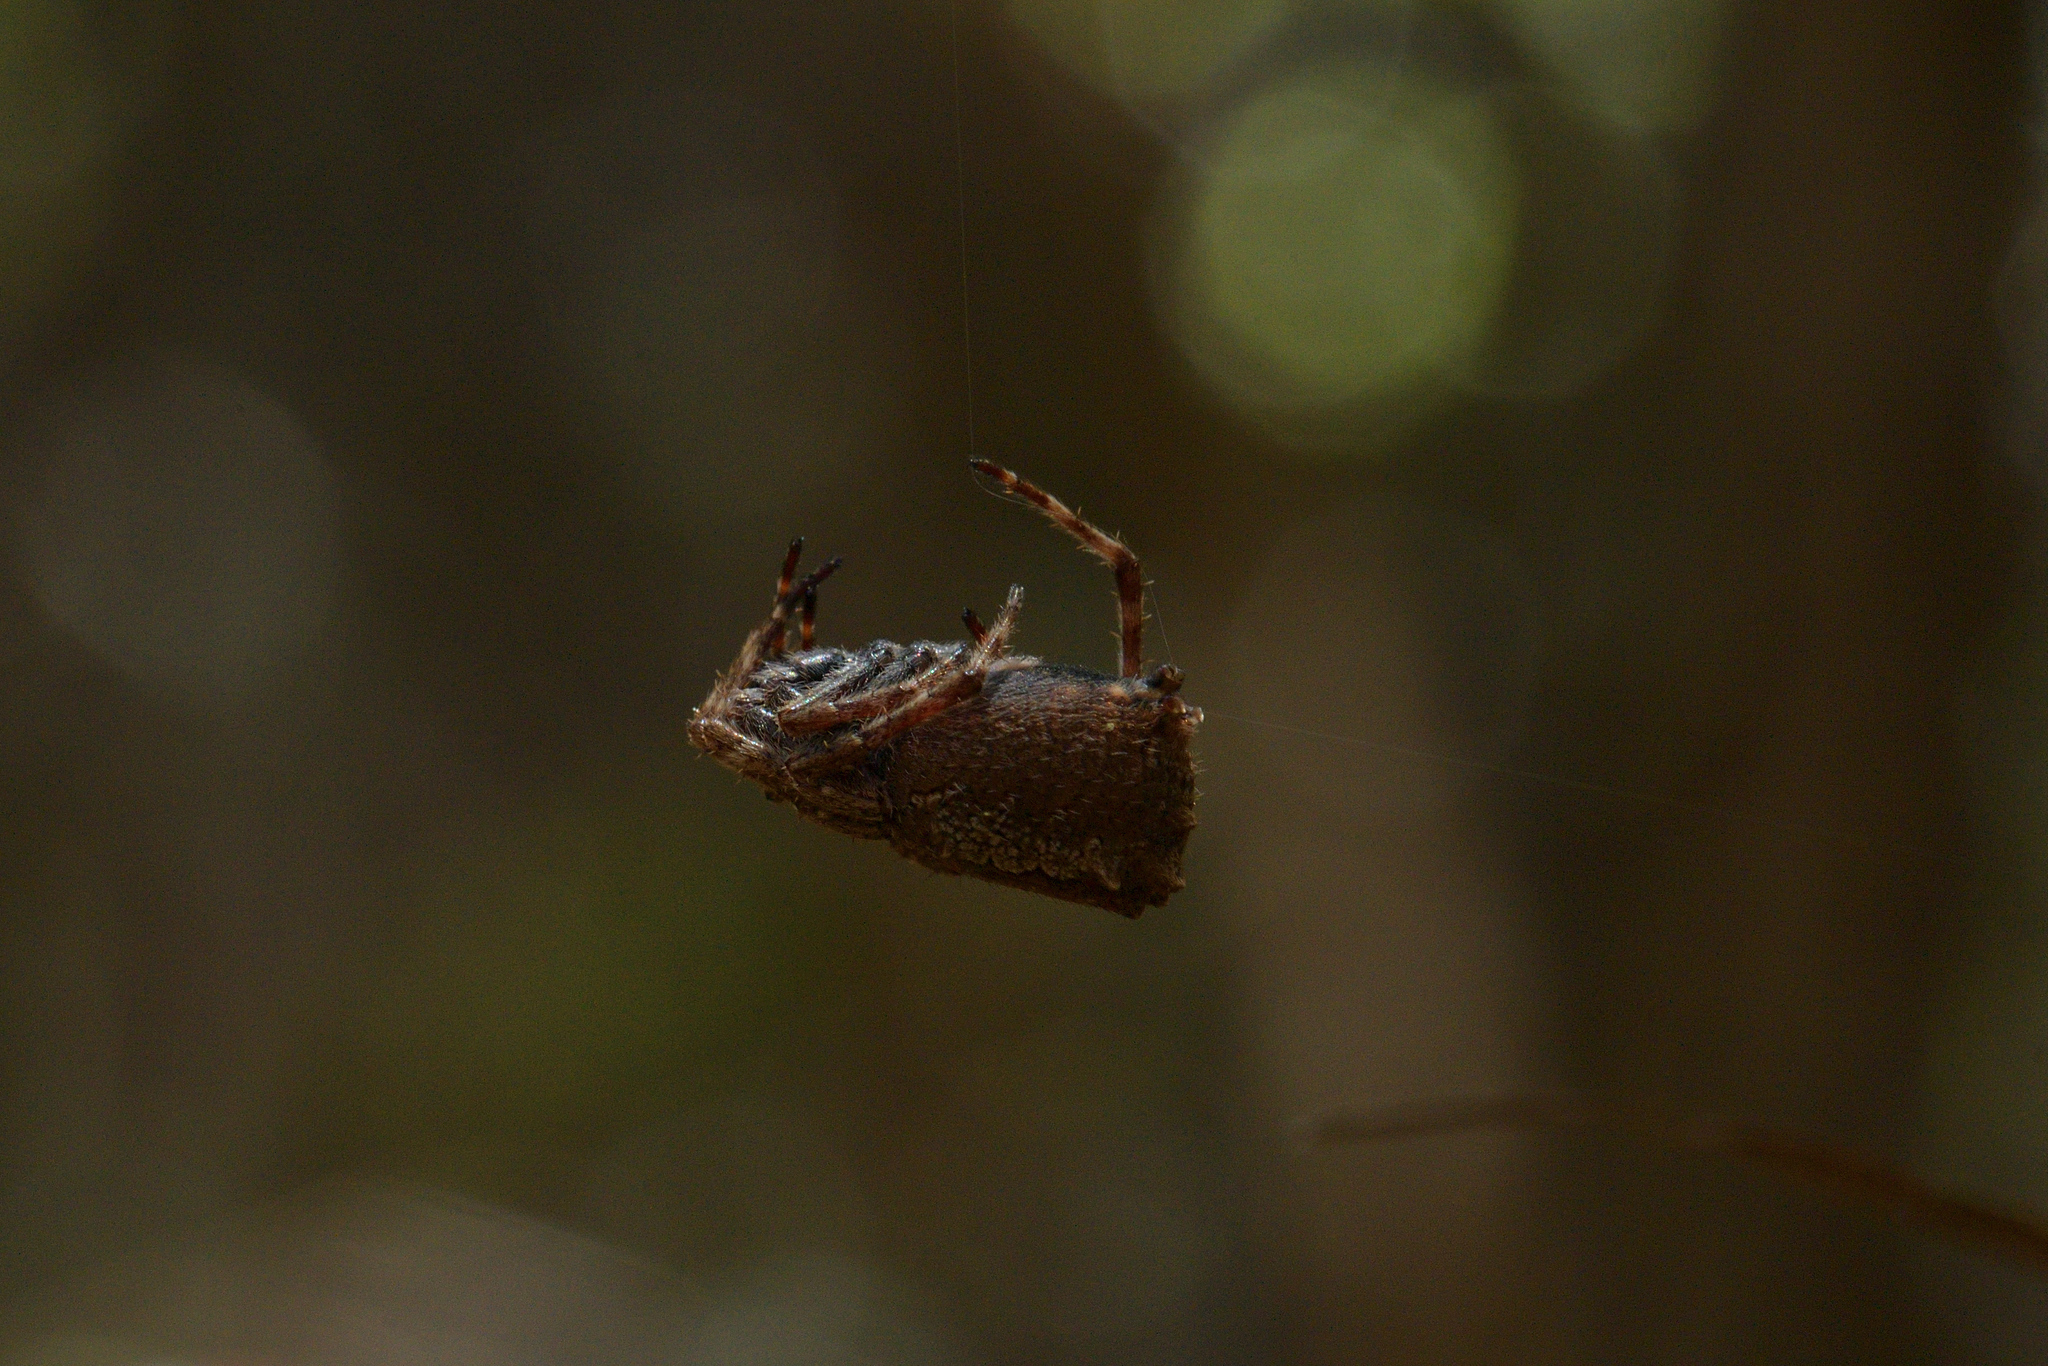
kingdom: Animalia
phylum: Arthropoda
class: Arachnida
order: Araneae
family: Araneidae
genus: Eriophora
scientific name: Eriophora pustulosa
